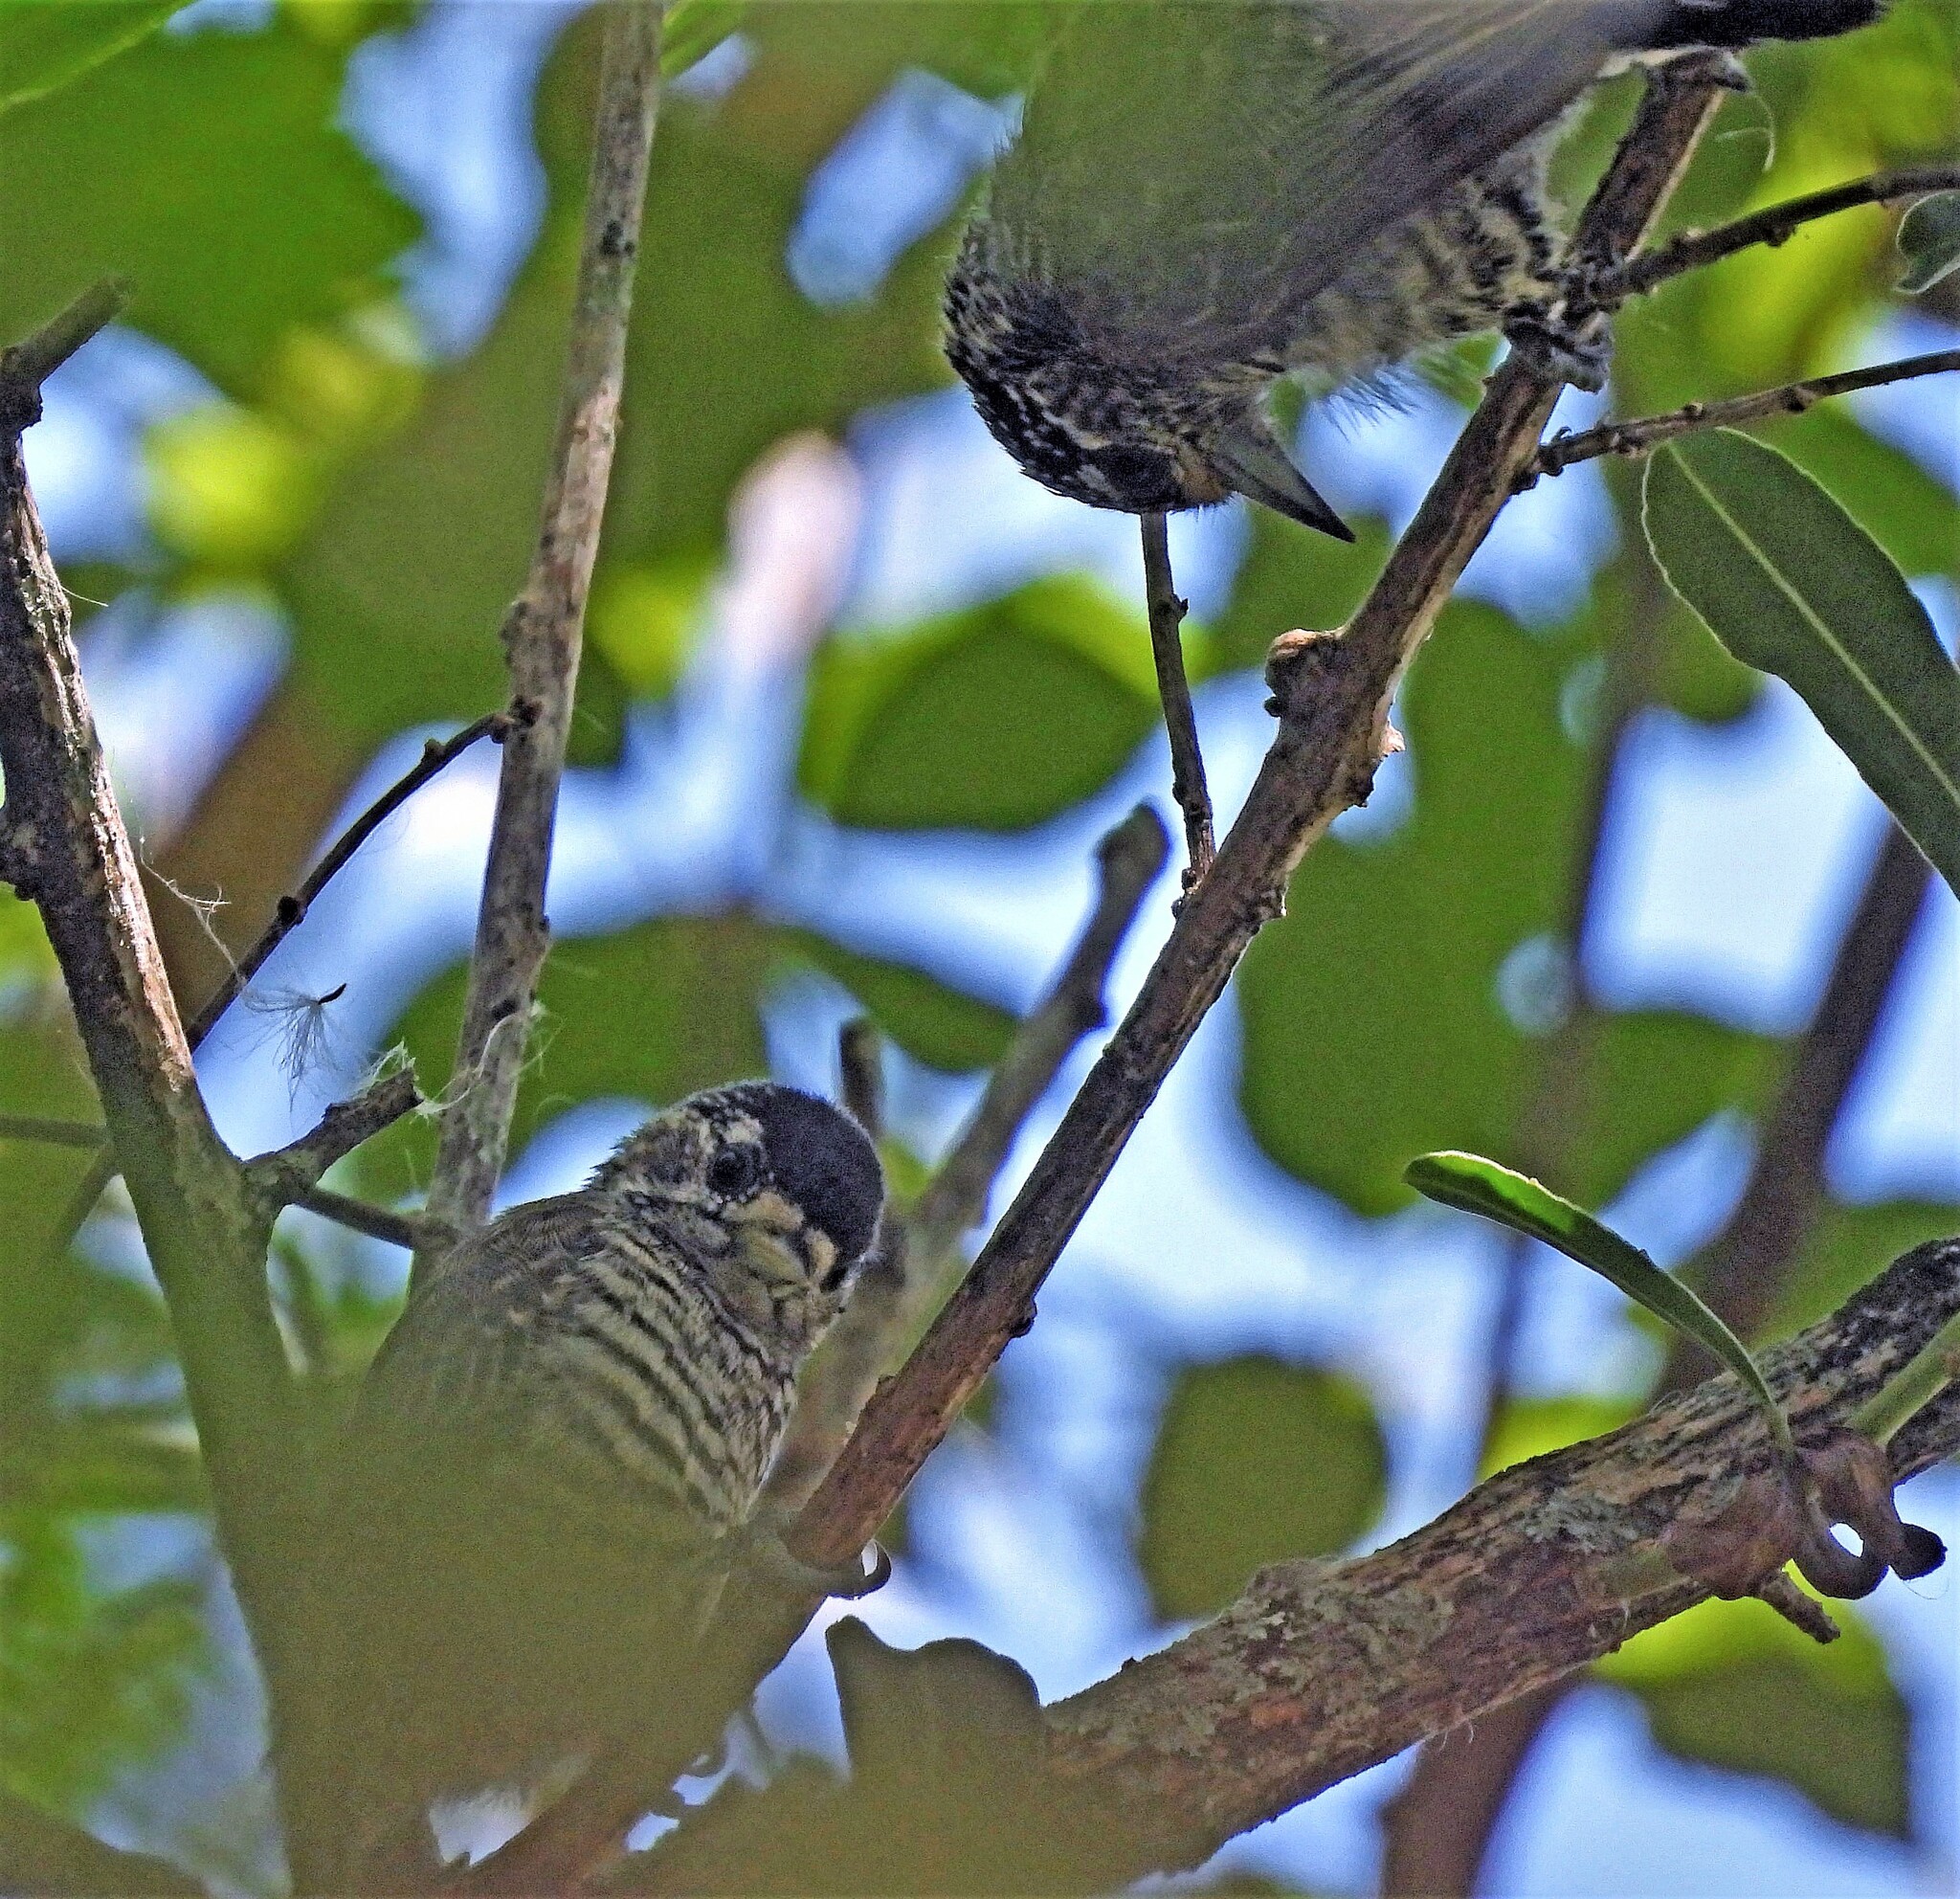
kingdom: Animalia
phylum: Chordata
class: Aves
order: Piciformes
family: Picidae
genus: Picumnus
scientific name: Picumnus cirratus
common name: White-barred piculet
